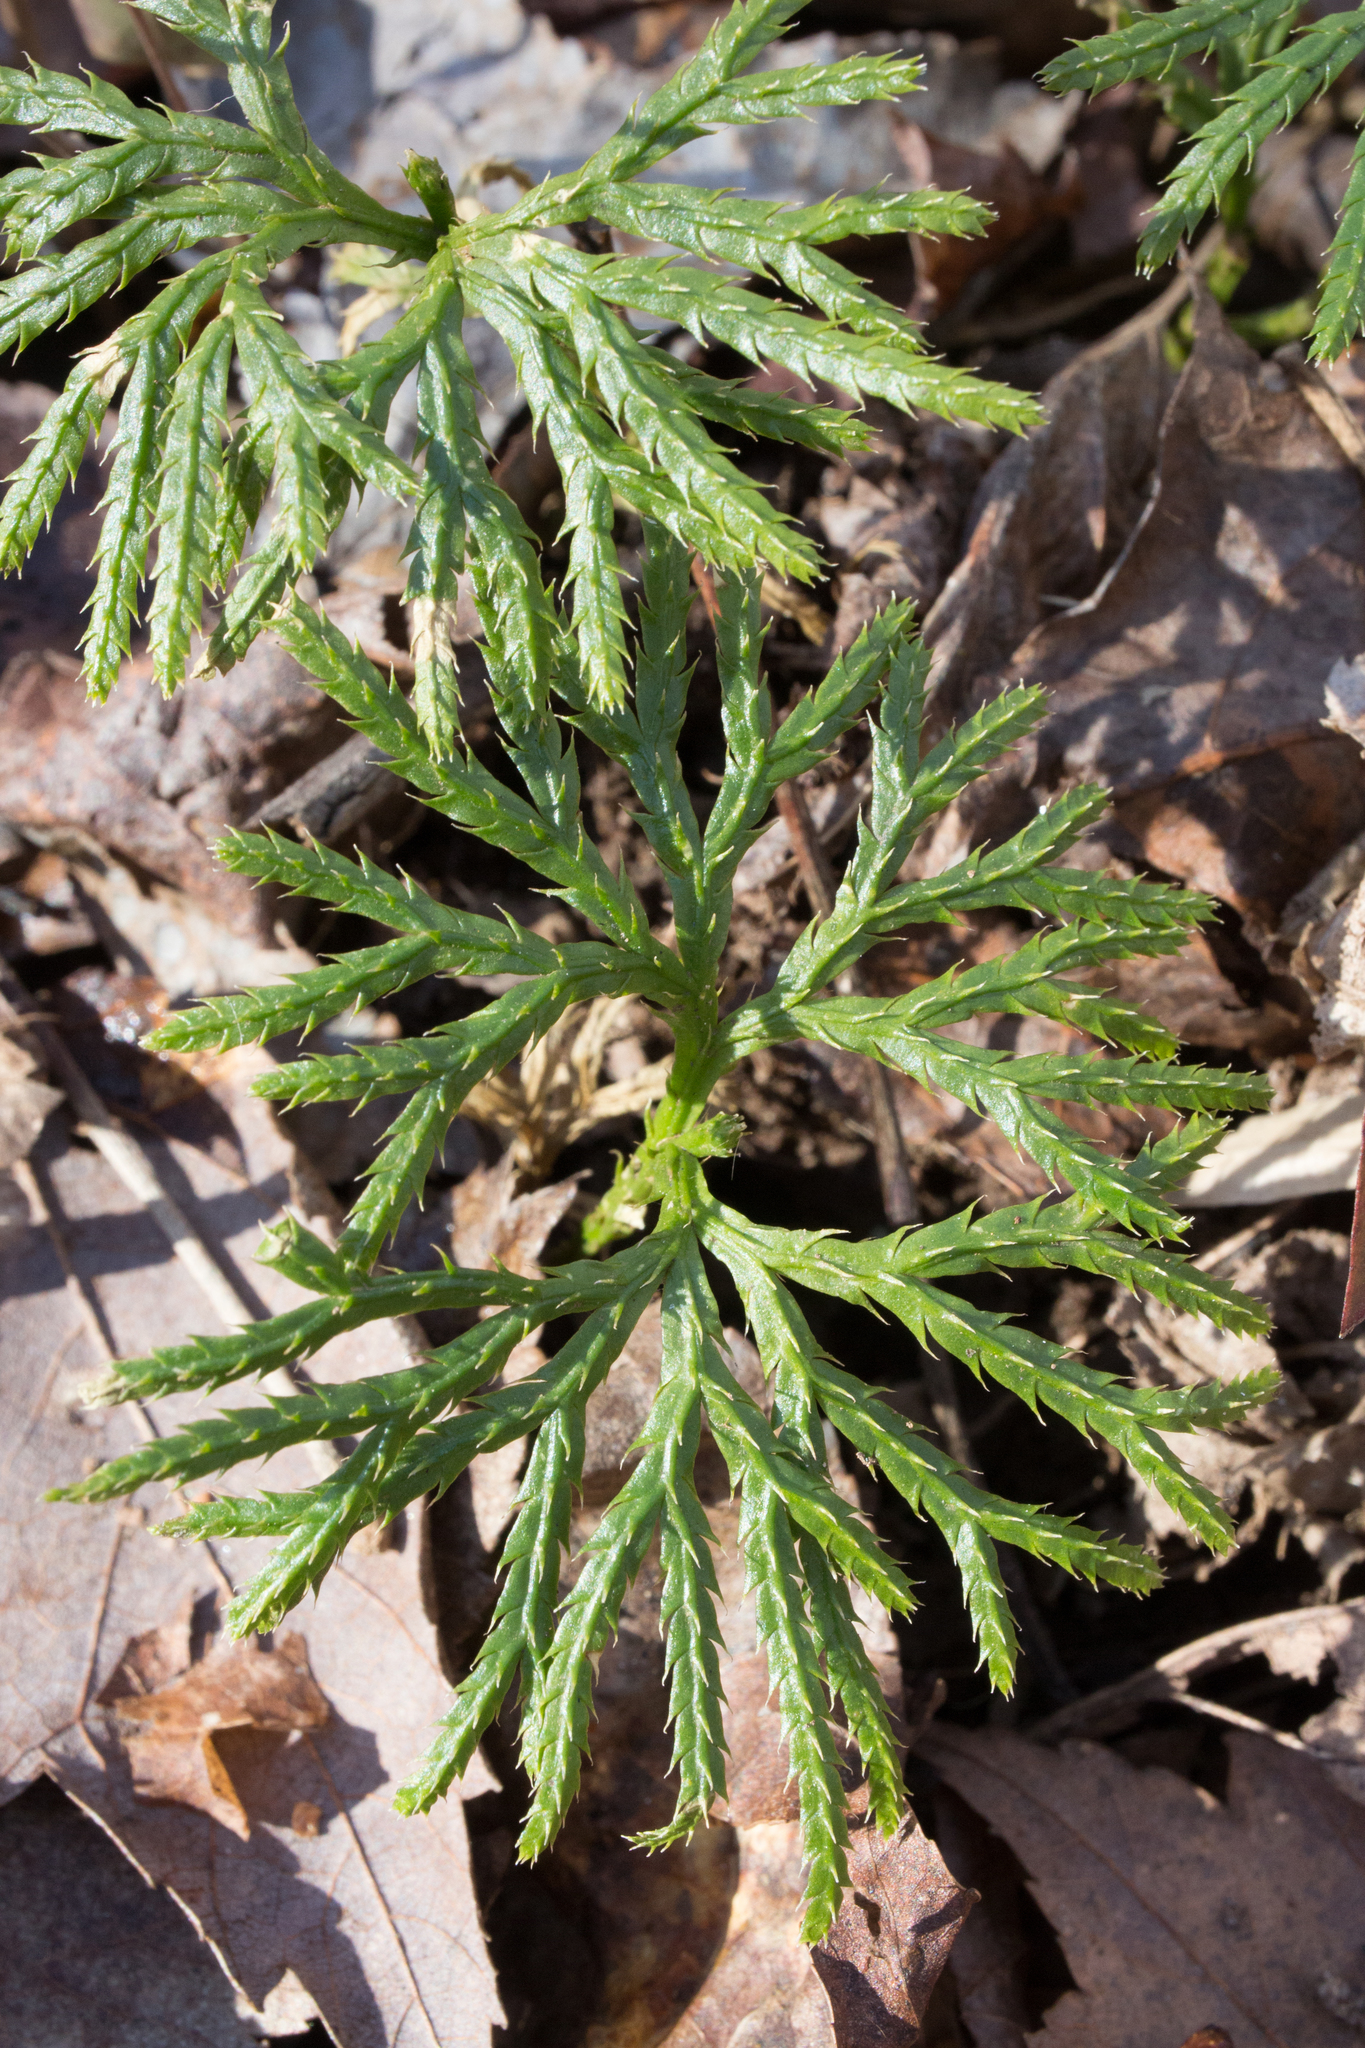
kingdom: Plantae
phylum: Tracheophyta
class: Lycopodiopsida
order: Lycopodiales
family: Lycopodiaceae
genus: Diphasiastrum
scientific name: Diphasiastrum digitatum
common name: Southern running-pine
